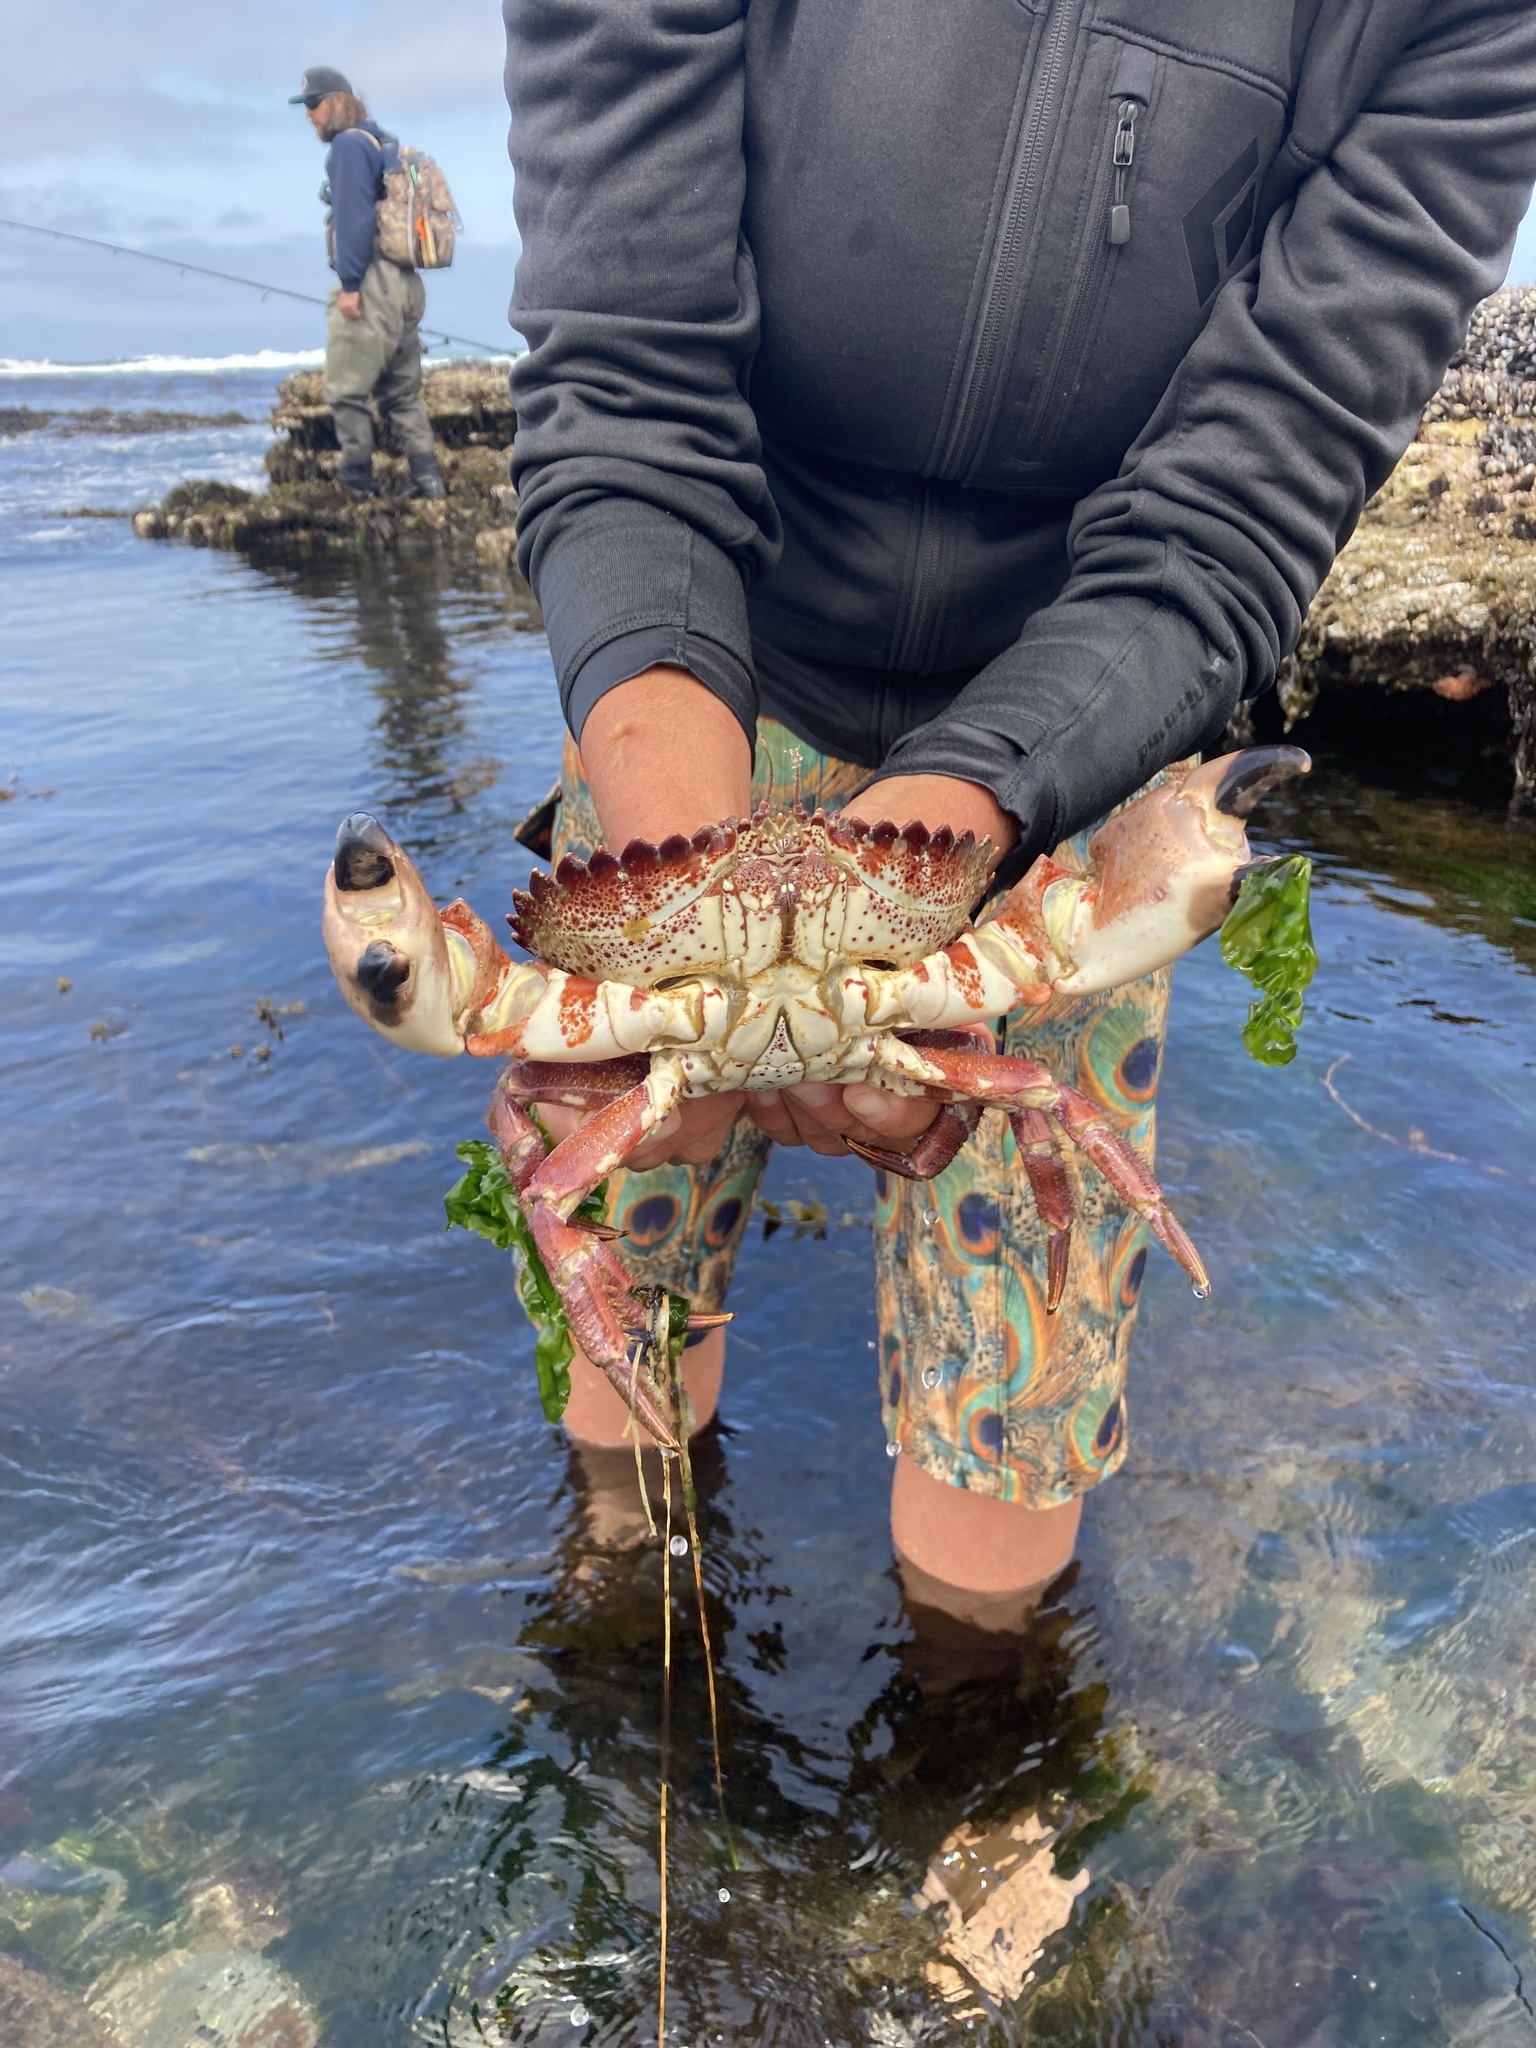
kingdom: Animalia
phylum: Arthropoda
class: Malacostraca
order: Decapoda
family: Cancridae
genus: Romaleon
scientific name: Romaleon antennarium
